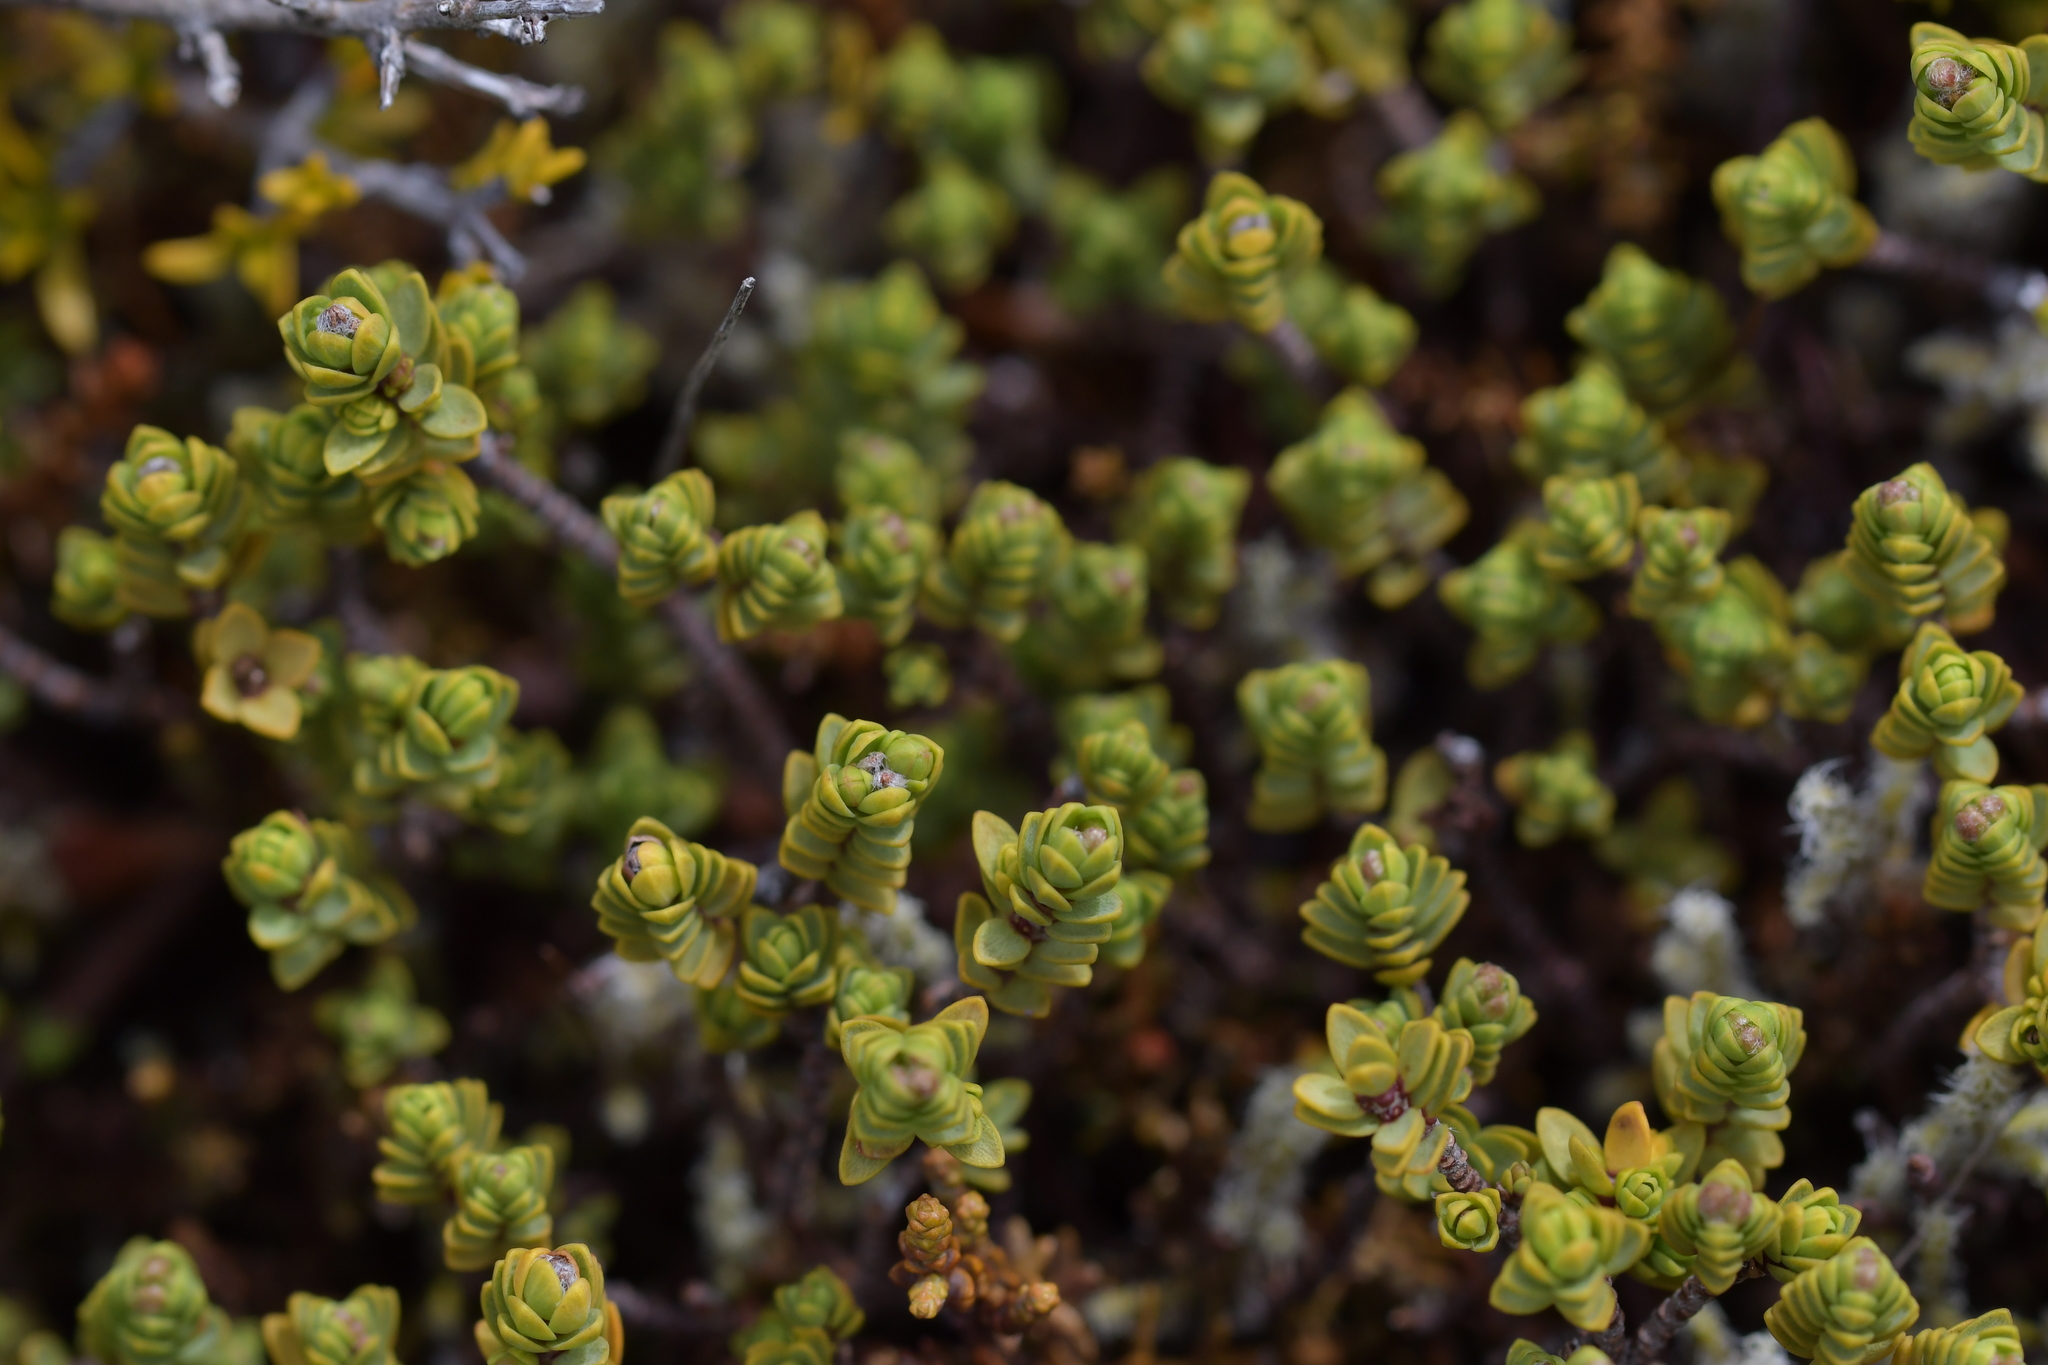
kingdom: Plantae
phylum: Tracheophyta
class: Magnoliopsida
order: Malvales
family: Thymelaeaceae
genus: Pimelea
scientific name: Pimelea microphylla
